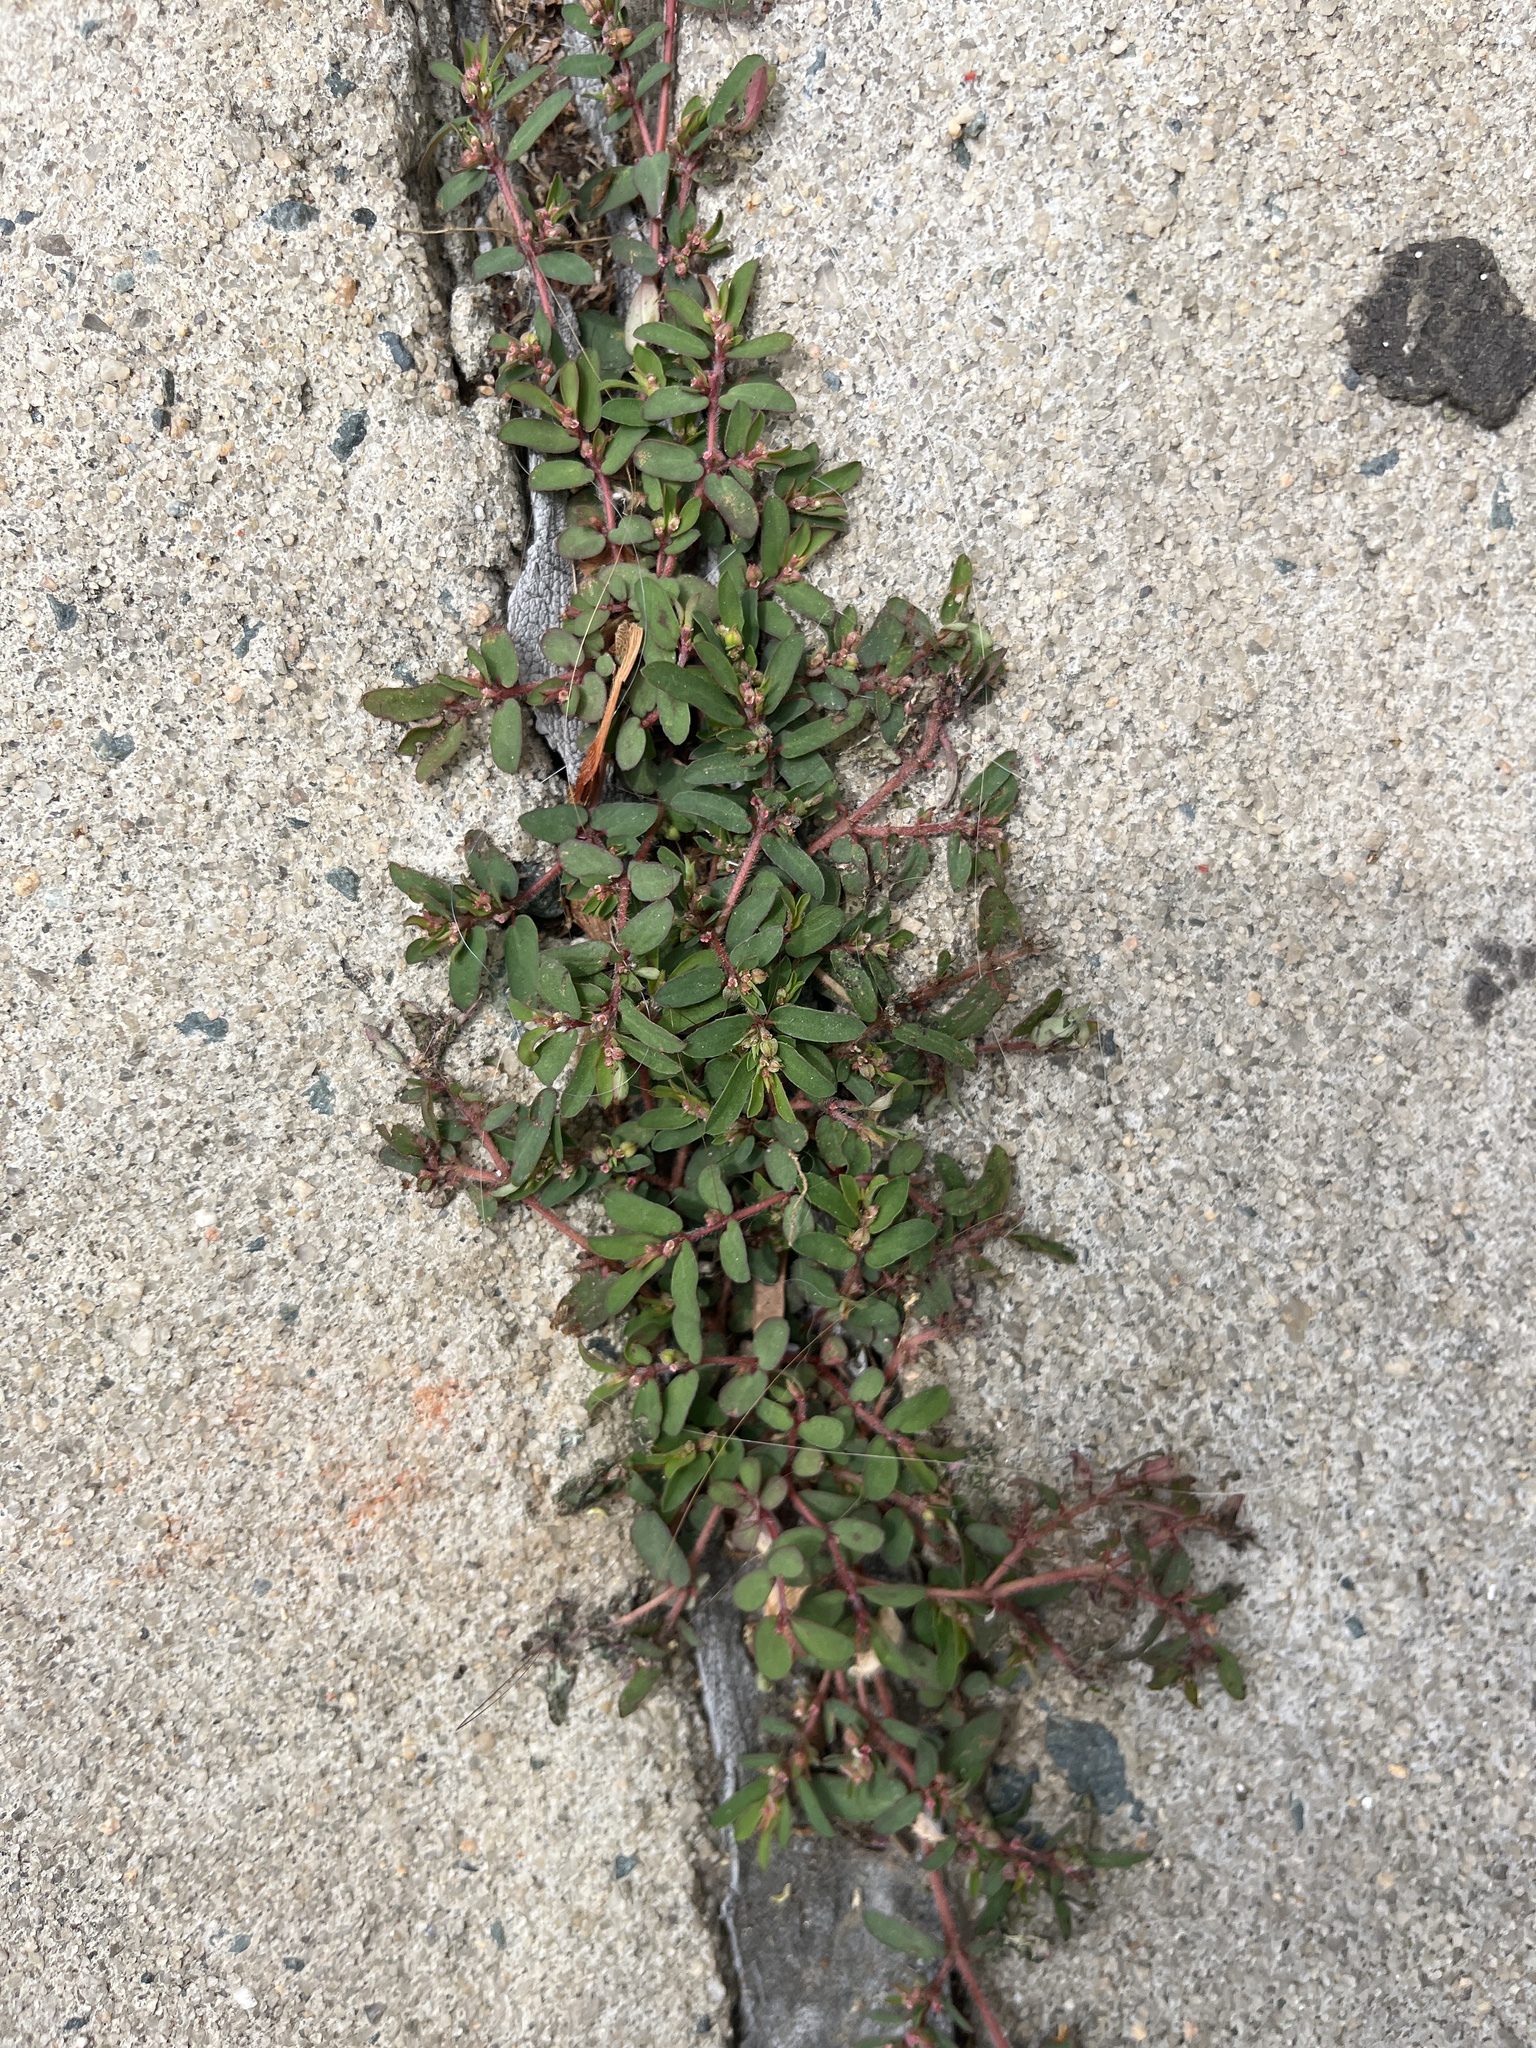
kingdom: Plantae
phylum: Tracheophyta
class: Magnoliopsida
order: Malpighiales
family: Euphorbiaceae
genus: Euphorbia
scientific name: Euphorbia maculata
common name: Spotted spurge
